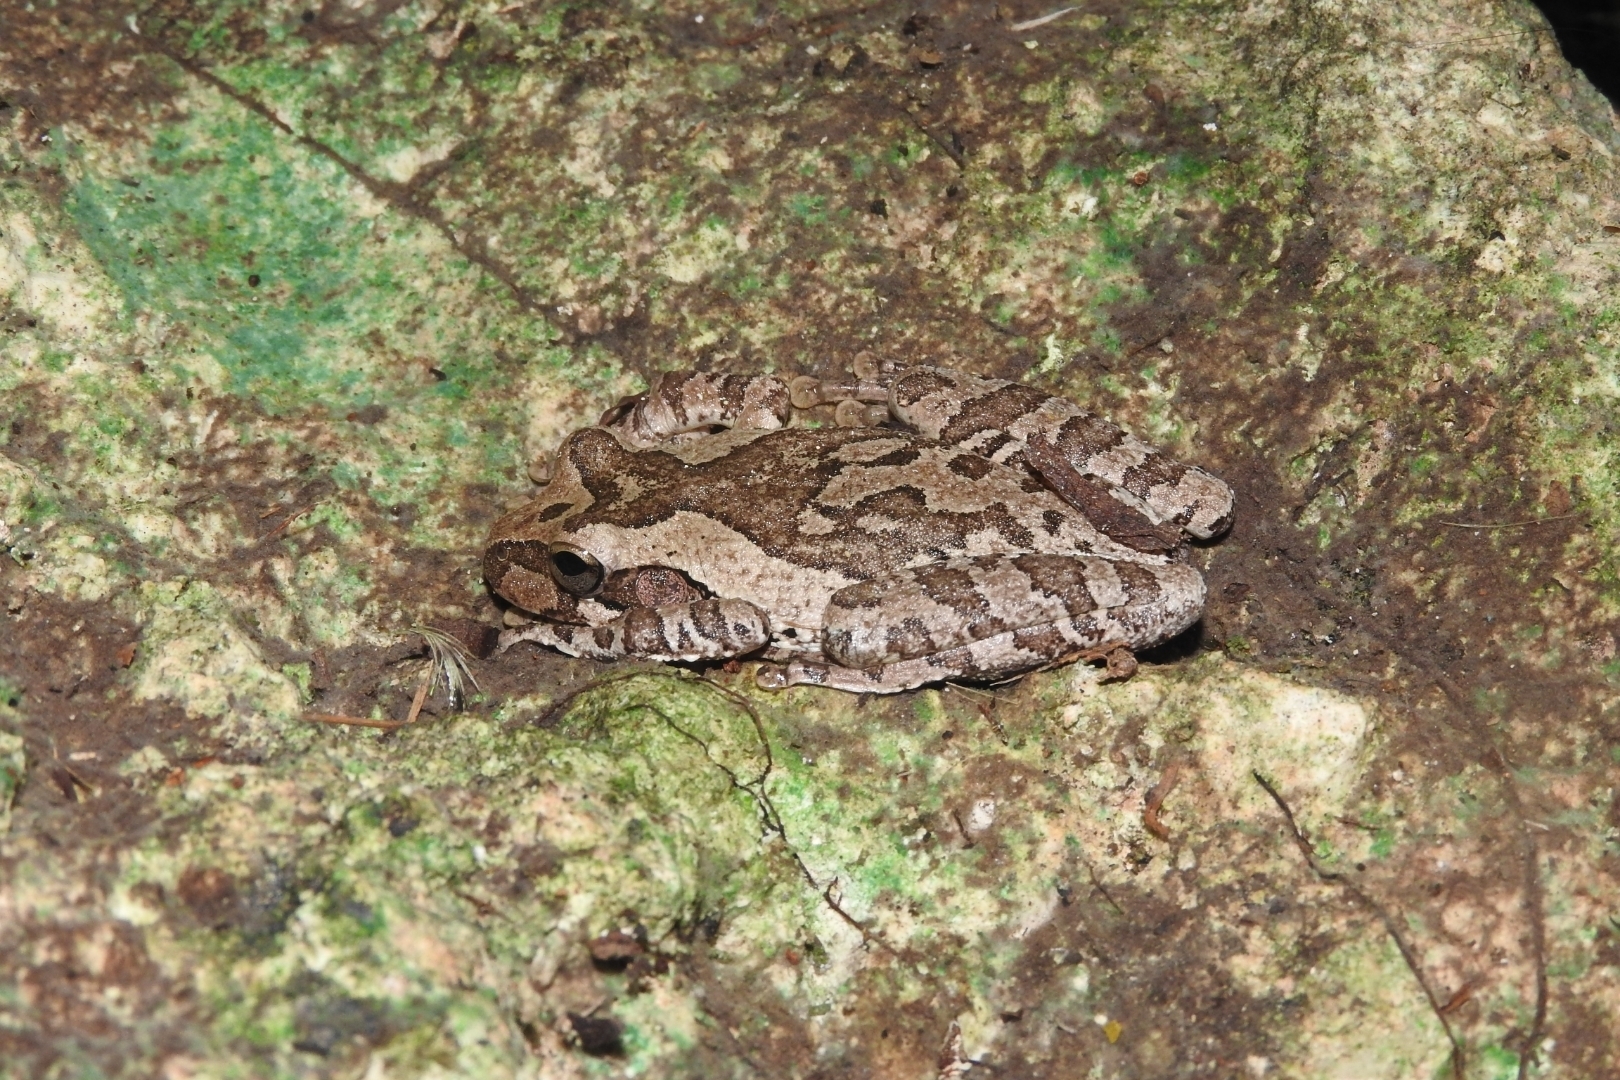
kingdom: Animalia
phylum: Chordata
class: Amphibia
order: Anura
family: Hylidae
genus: Smilisca
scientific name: Smilisca baudinii
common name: Mexican smilisca
